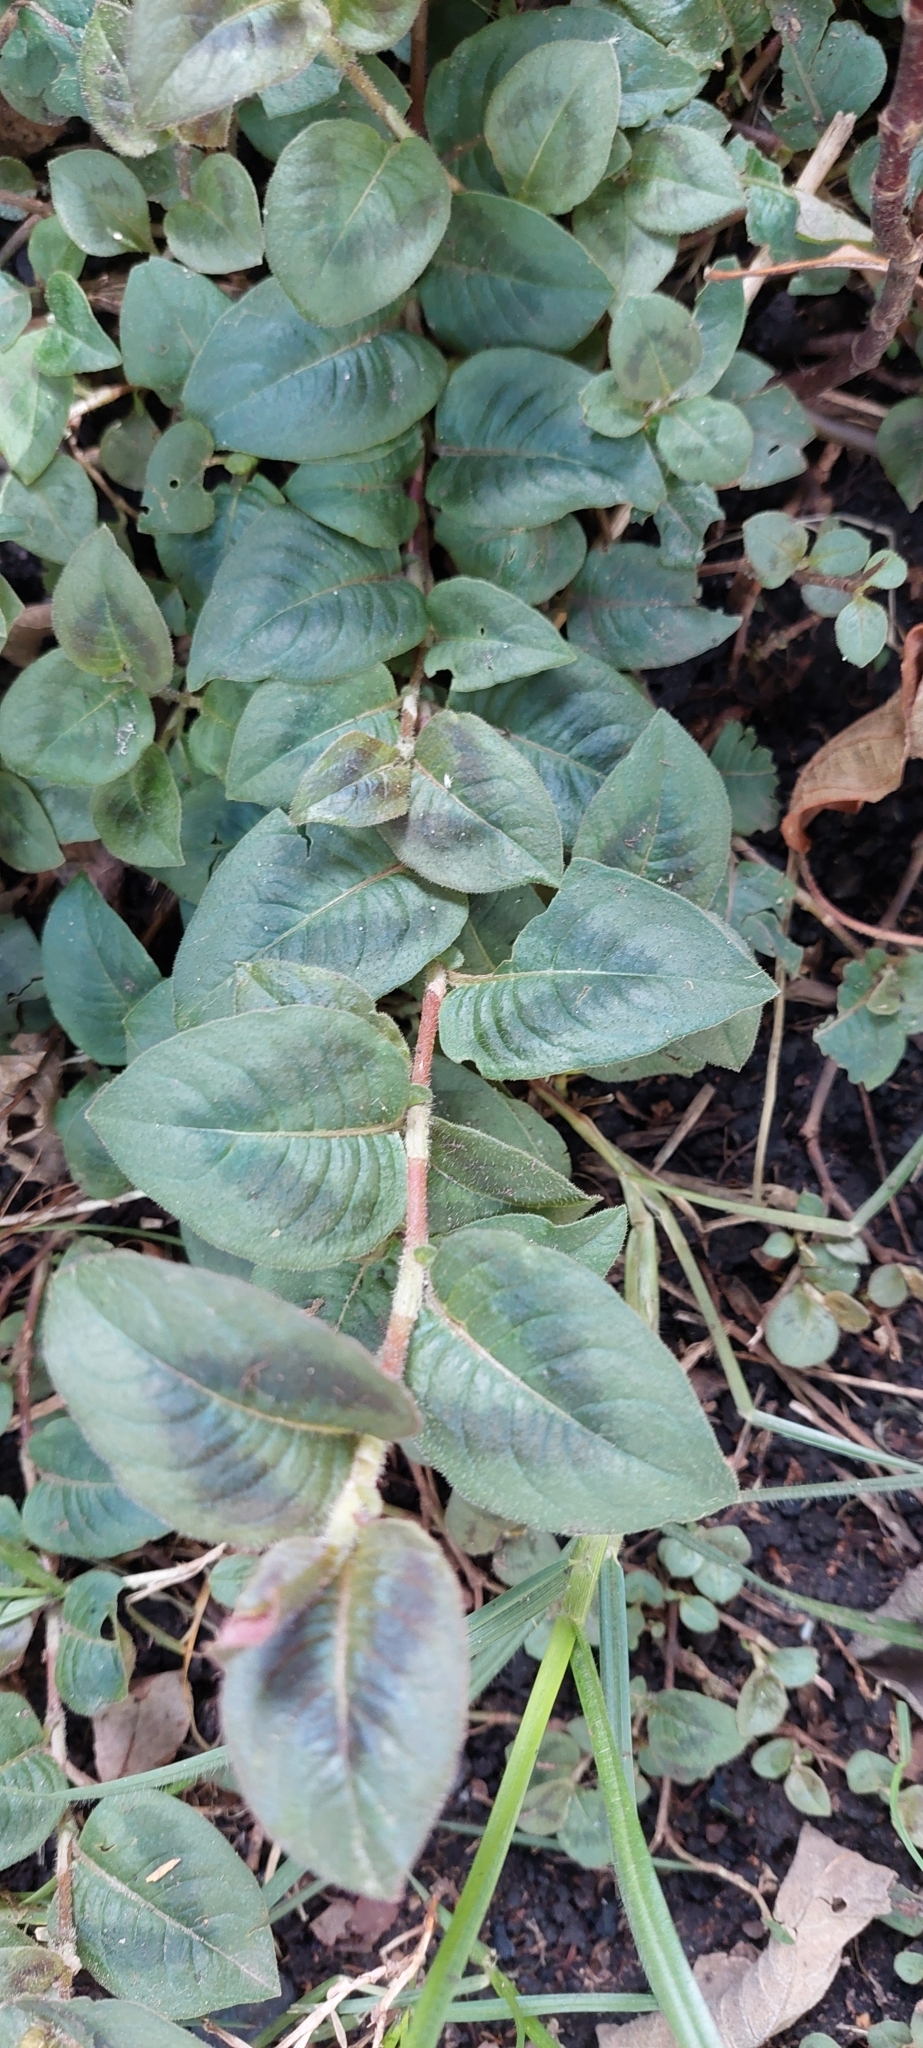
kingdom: Plantae
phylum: Tracheophyta
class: Magnoliopsida
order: Caryophyllales
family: Polygonaceae
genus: Persicaria
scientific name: Persicaria capitata
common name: Pinkhead smartweed
